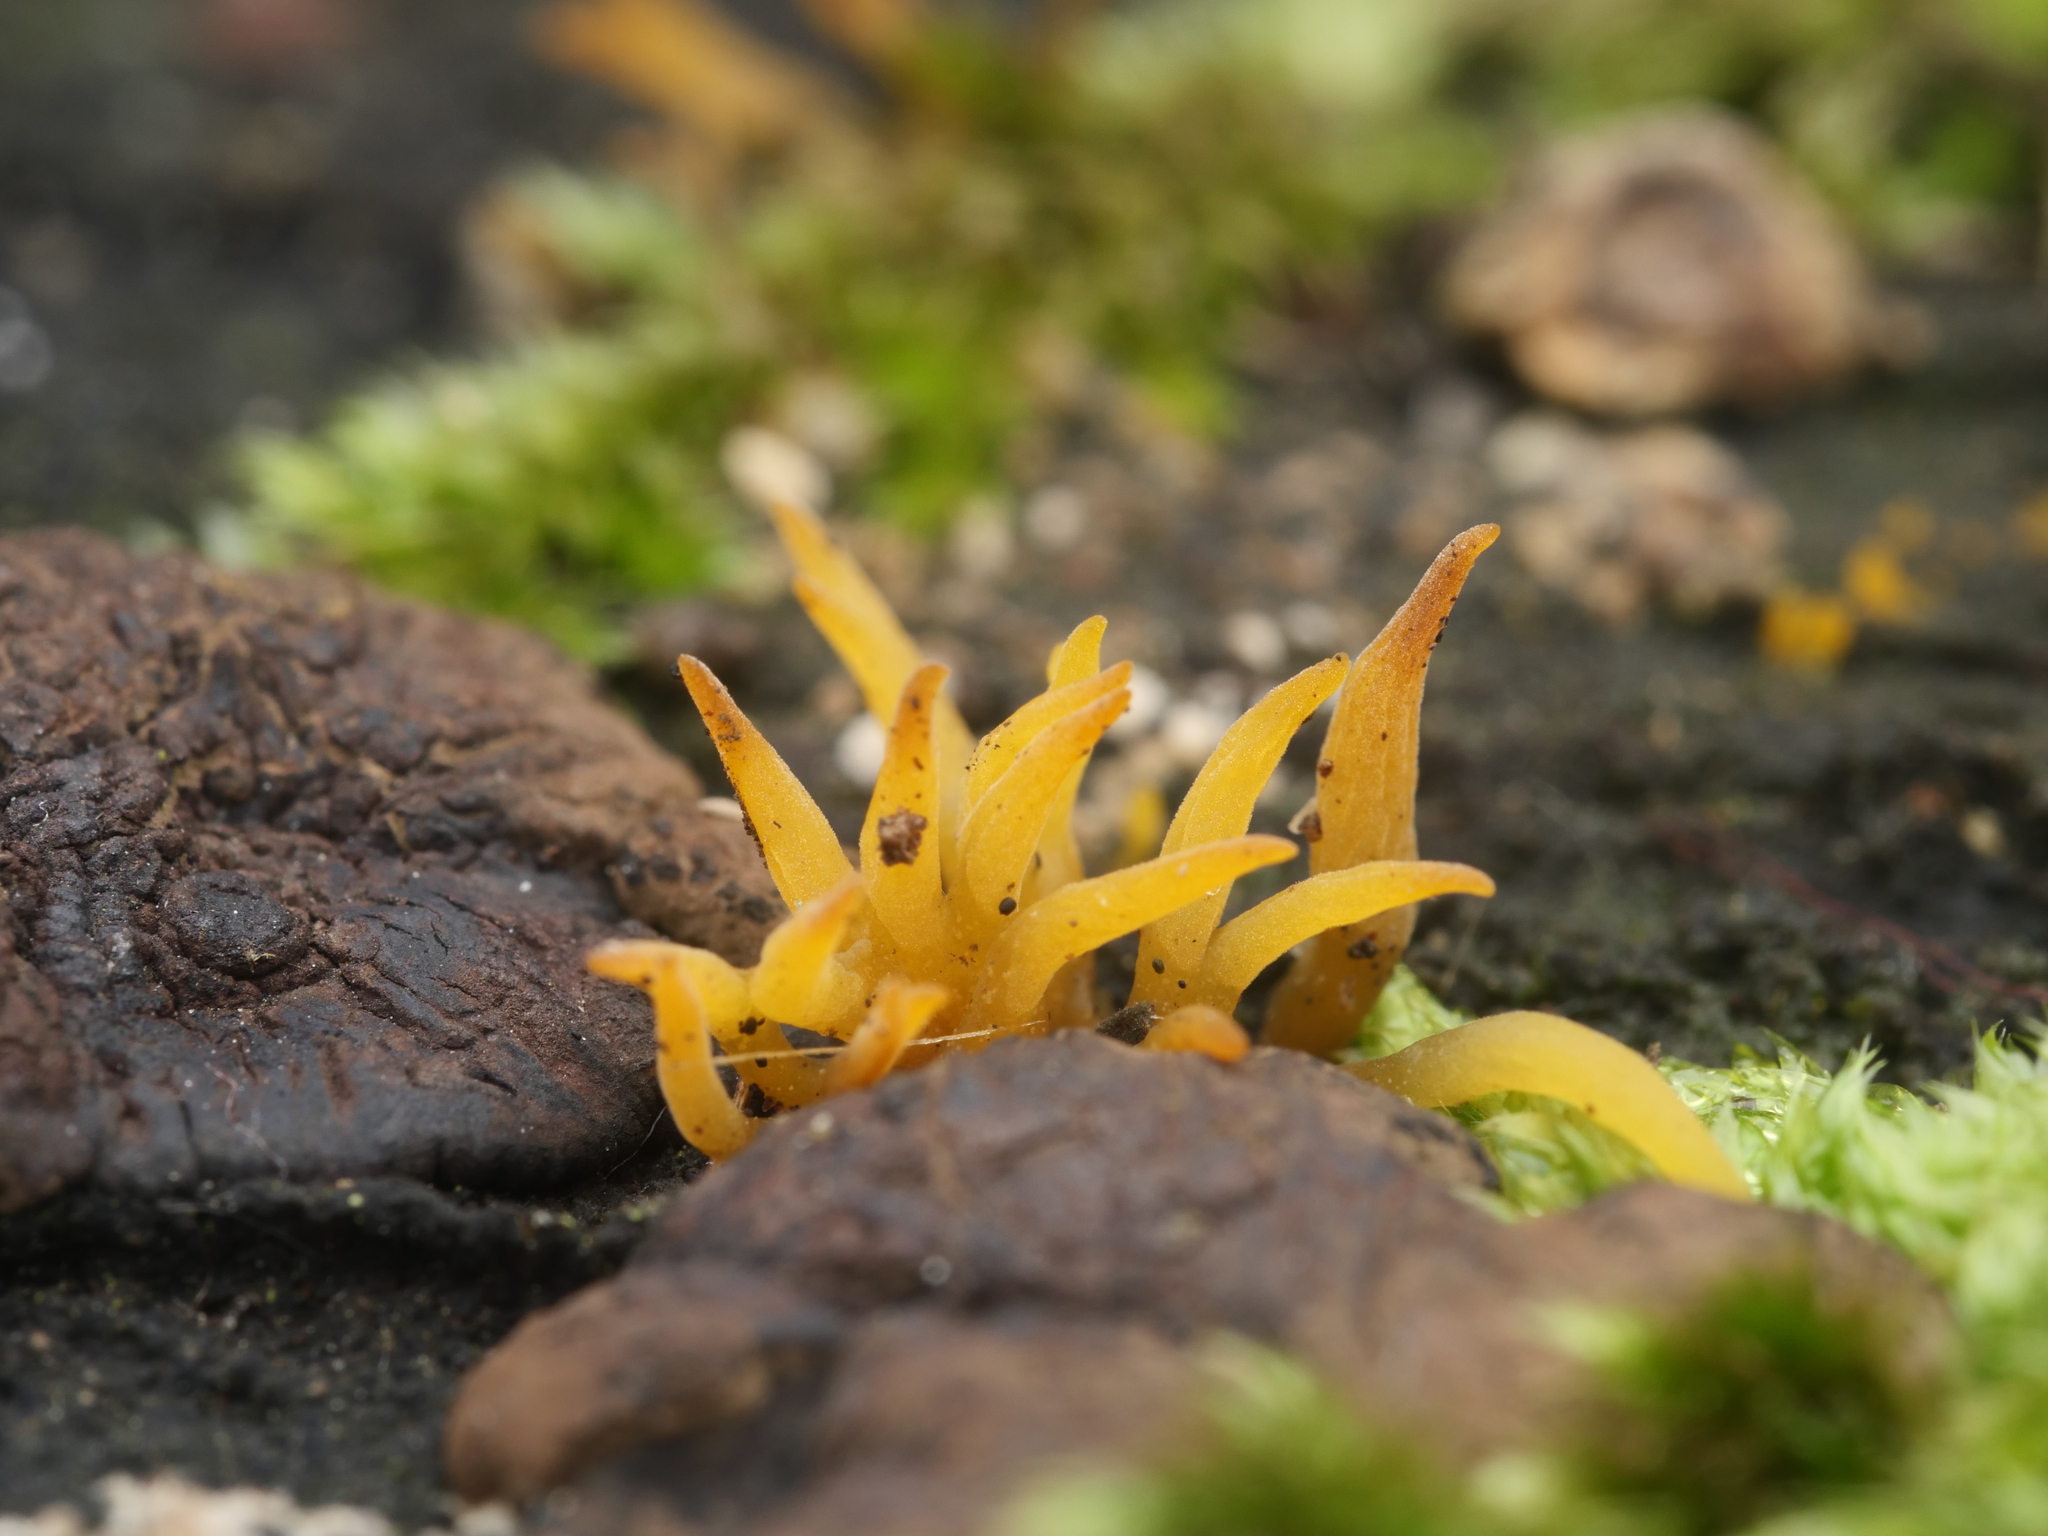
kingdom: Fungi
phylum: Basidiomycota
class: Dacrymycetes
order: Dacrymycetales
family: Dacrymycetaceae
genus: Calocera
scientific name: Calocera cornea
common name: Small stagshorn
